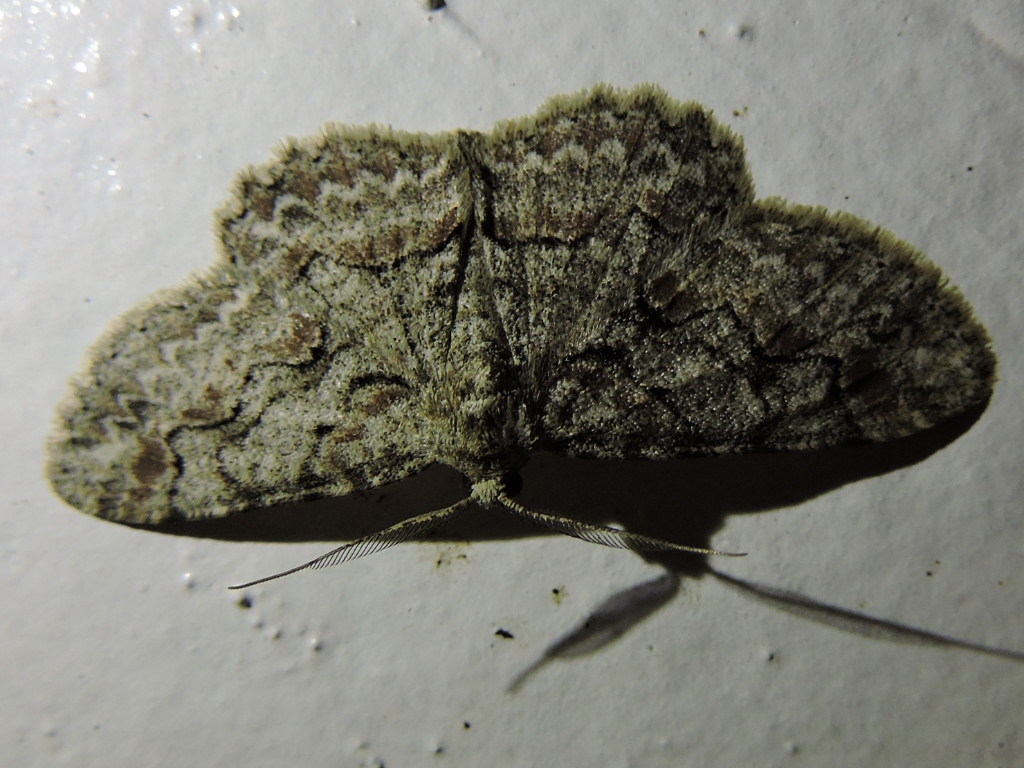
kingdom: Animalia
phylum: Arthropoda
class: Insecta
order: Lepidoptera
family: Geometridae
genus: Iridopsis
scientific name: Iridopsis defectaria
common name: Brown-shaded gray
